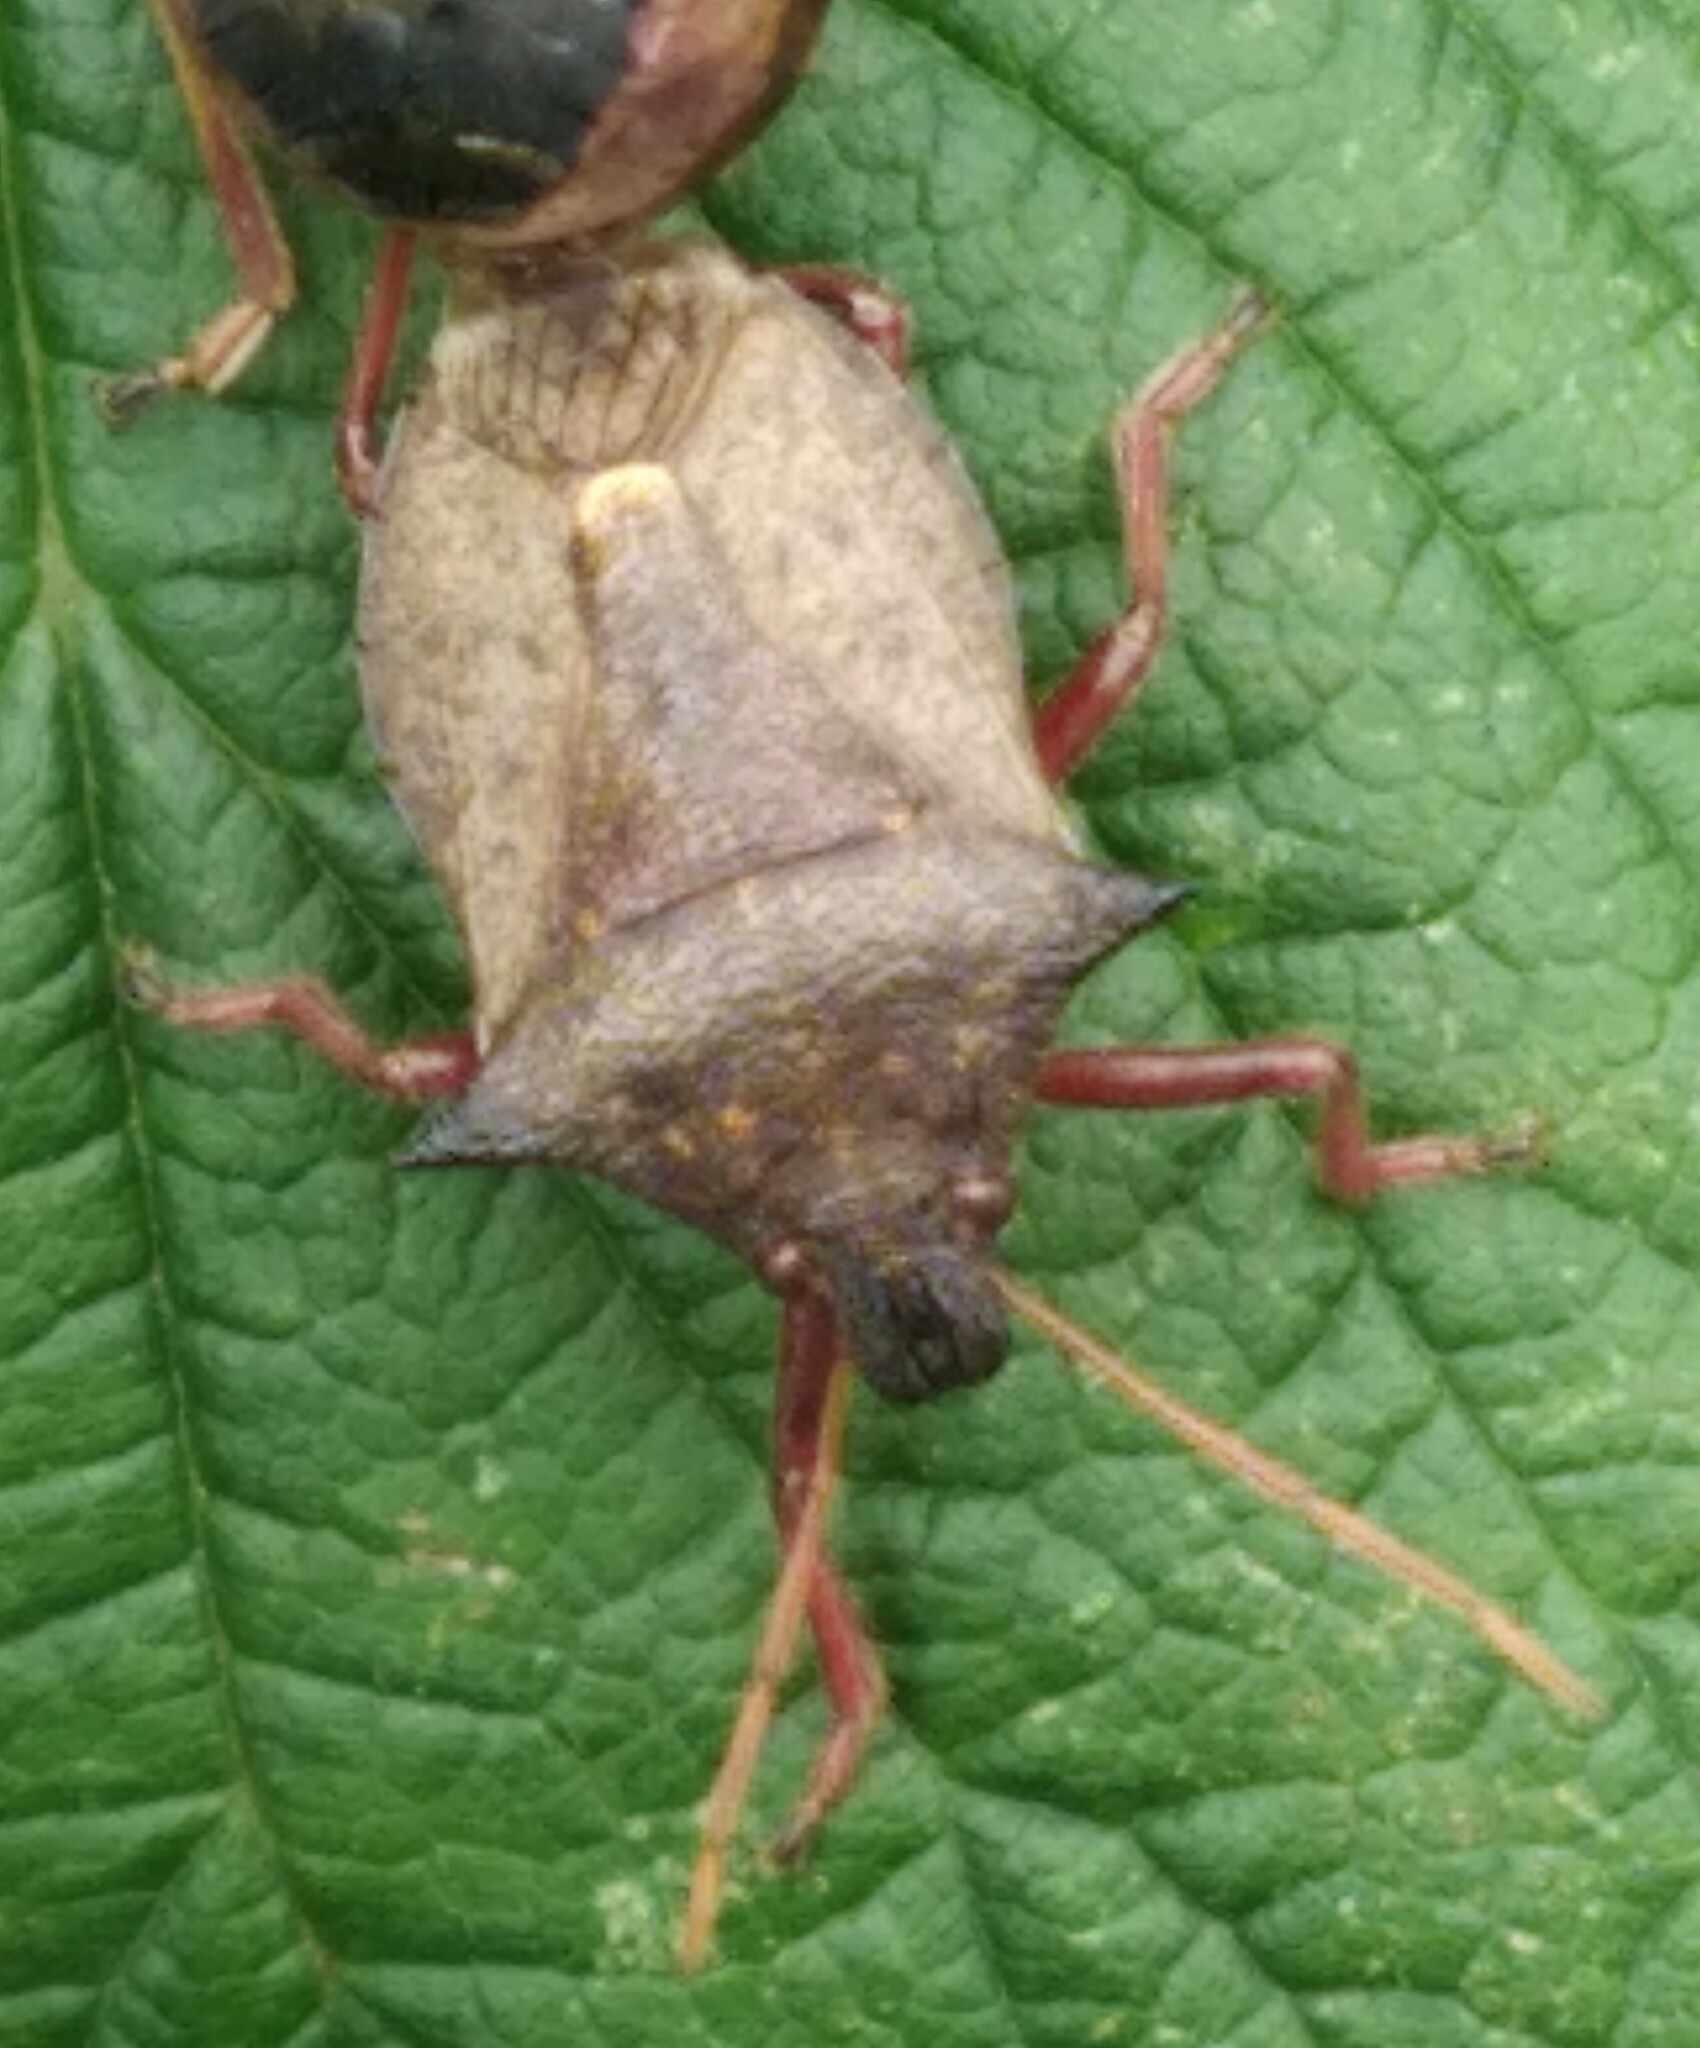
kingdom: Animalia
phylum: Arthropoda
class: Insecta
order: Hemiptera
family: Coreidae
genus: Coreus
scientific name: Coreus marginatus
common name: Dock bug
